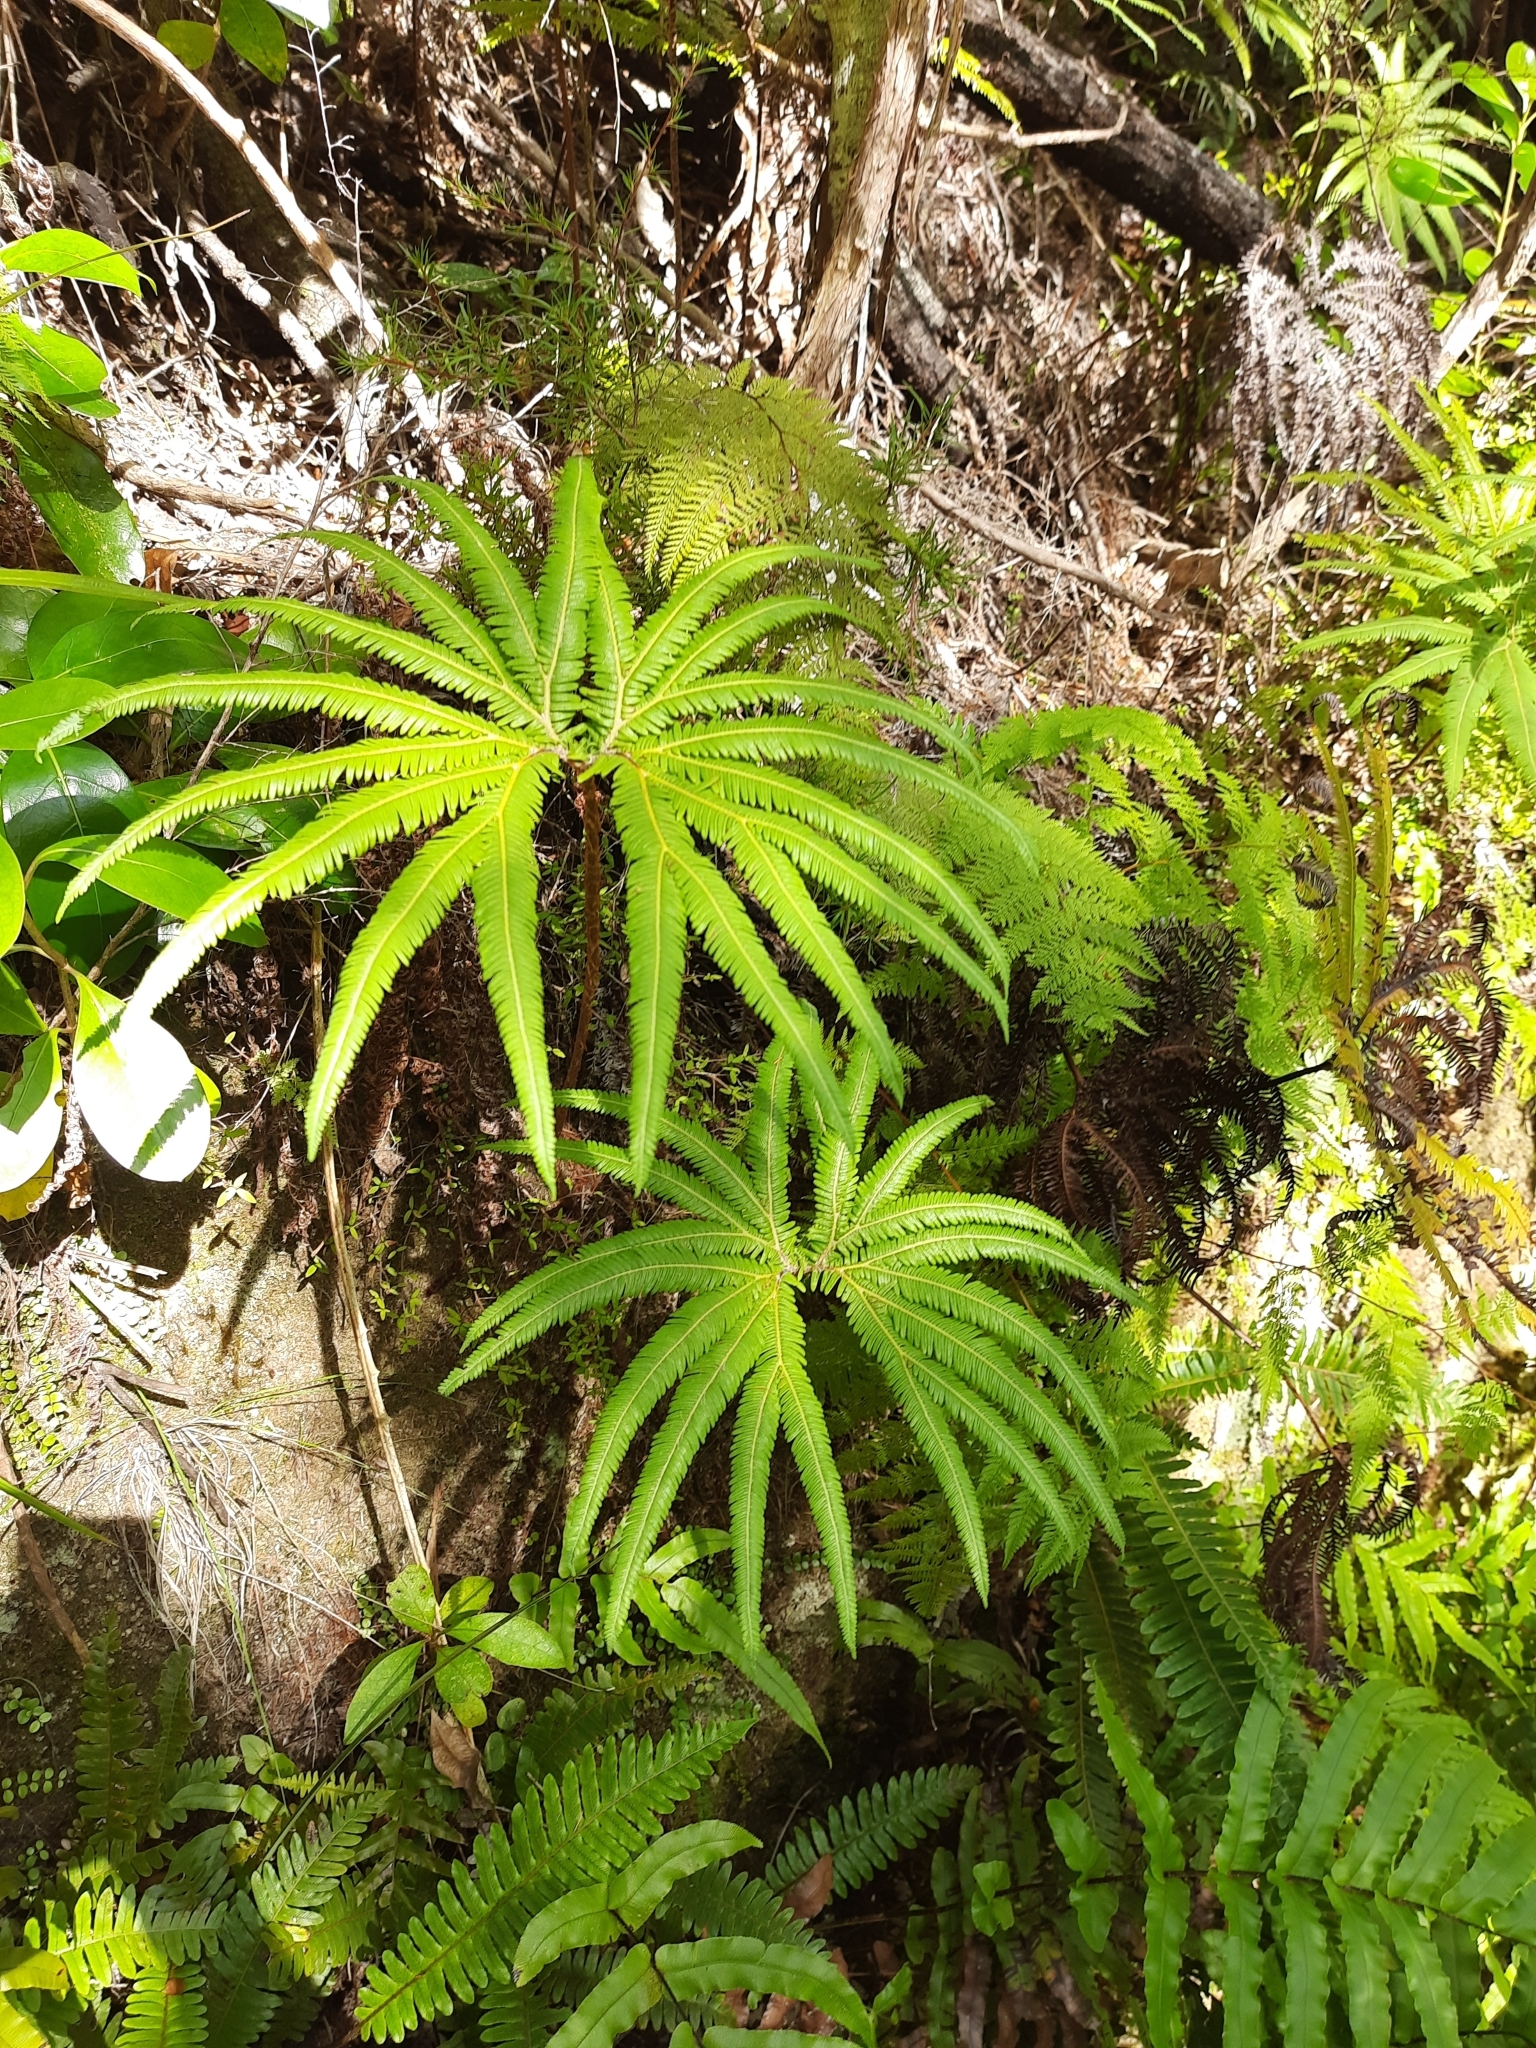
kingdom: Plantae
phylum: Tracheophyta
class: Polypodiopsida
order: Gleicheniales
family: Gleicheniaceae
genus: Sticherus
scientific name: Sticherus cunninghamii
